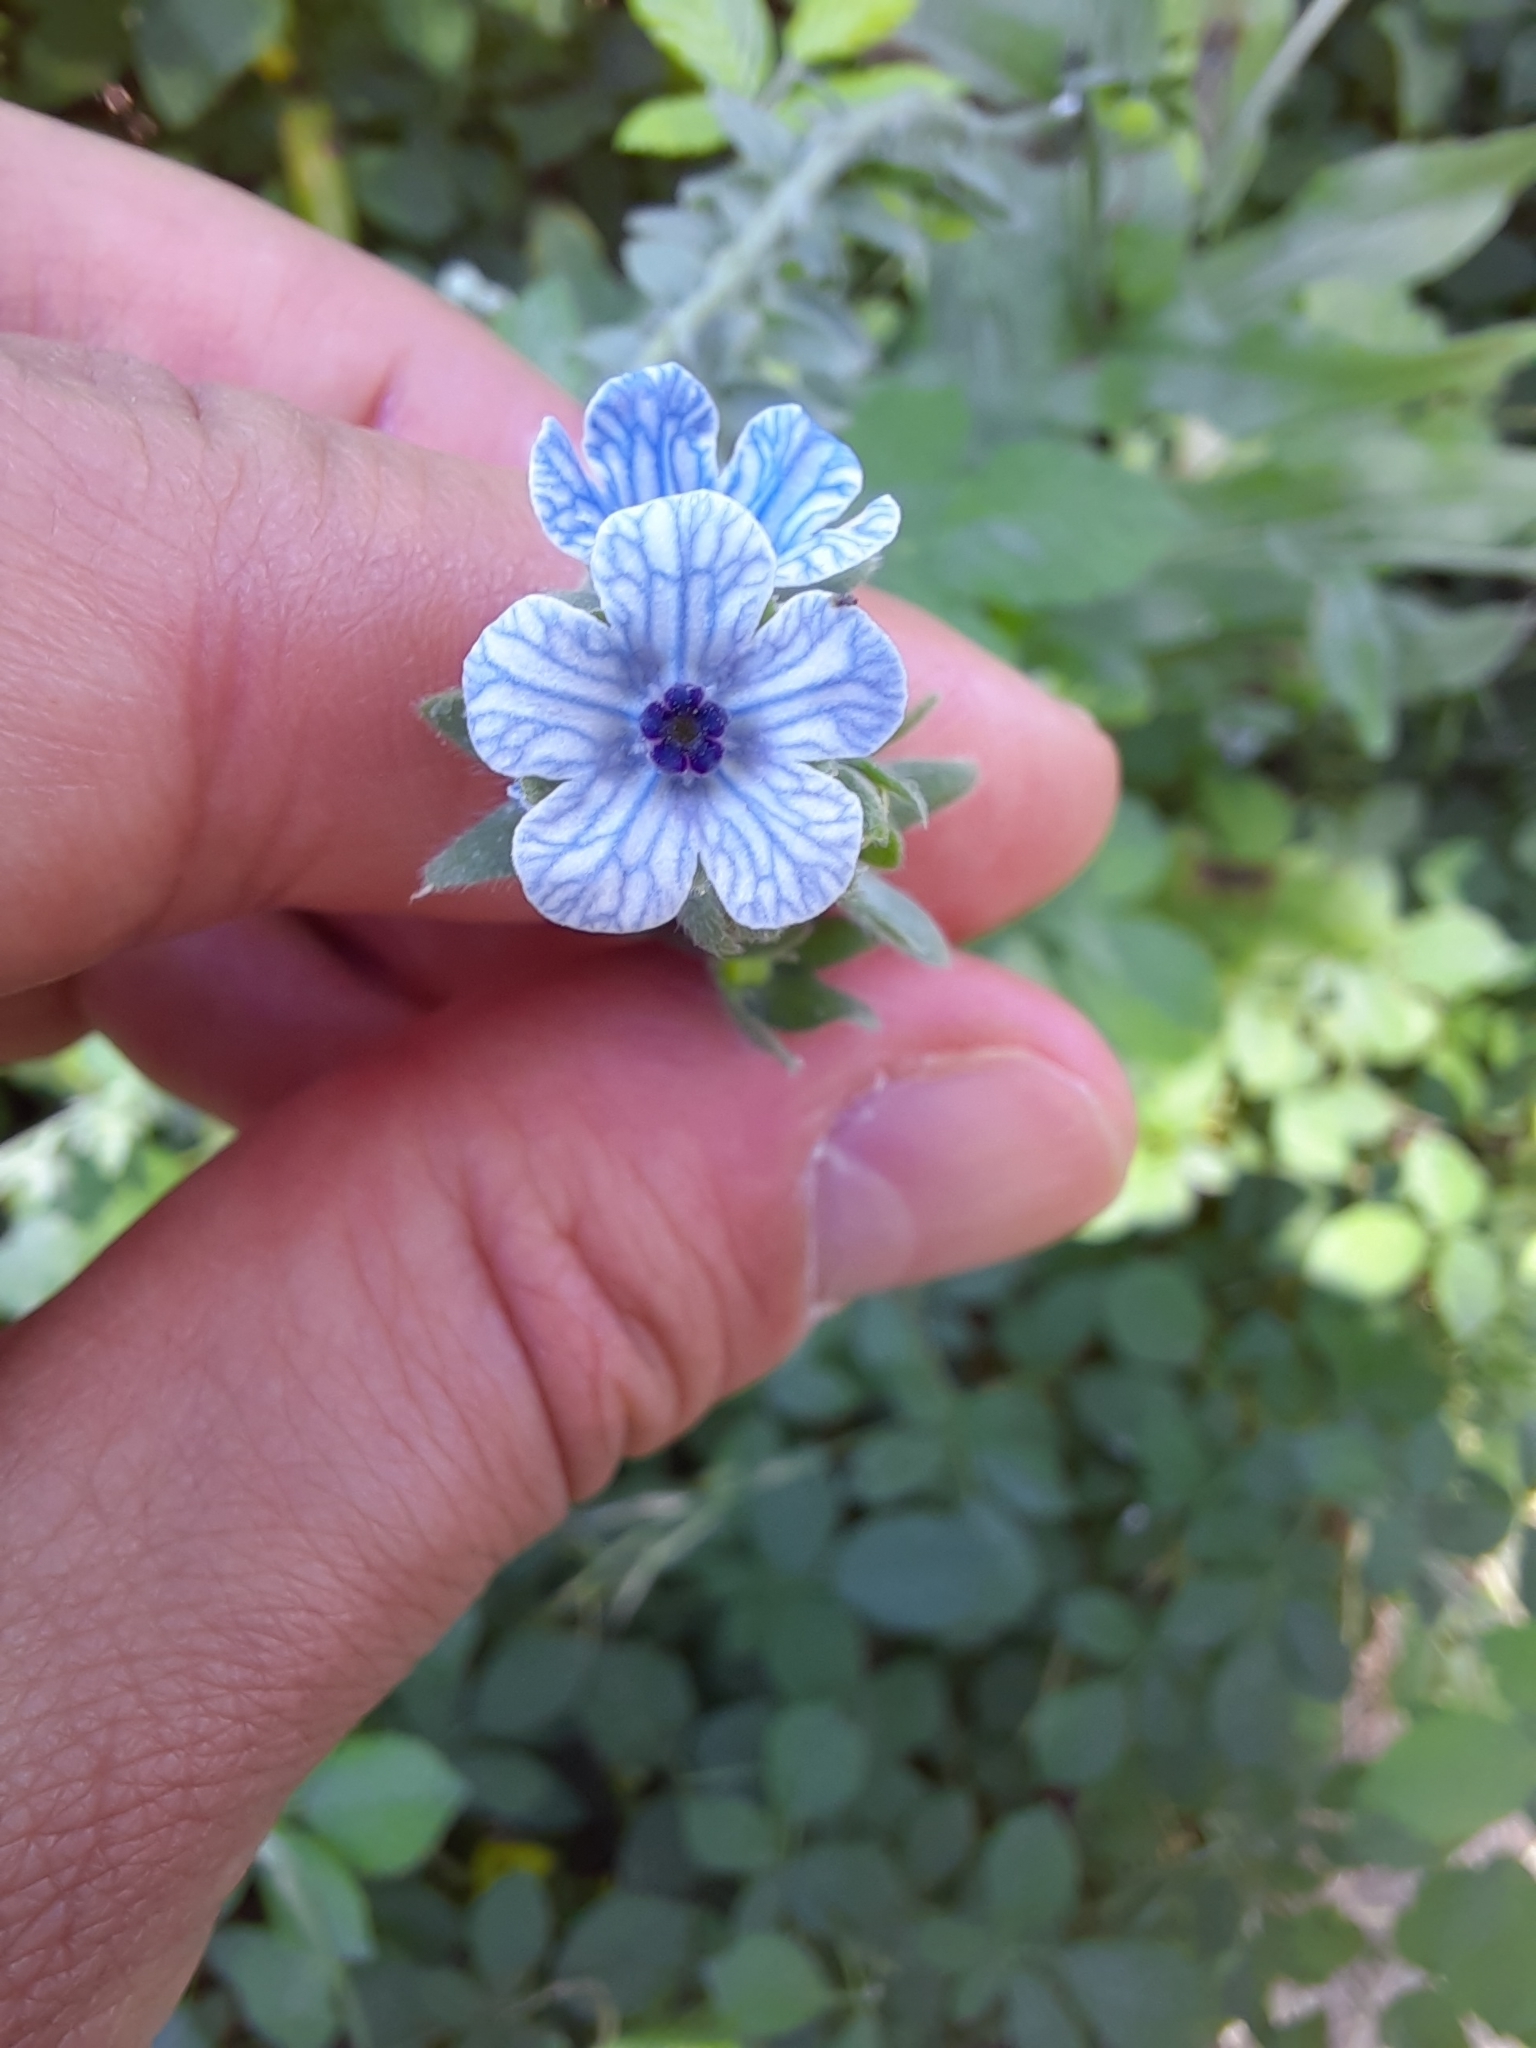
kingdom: Plantae
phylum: Tracheophyta
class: Magnoliopsida
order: Boraginales
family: Boraginaceae
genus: Cynoglossum
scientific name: Cynoglossum creticum
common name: Blue hound's tongue
